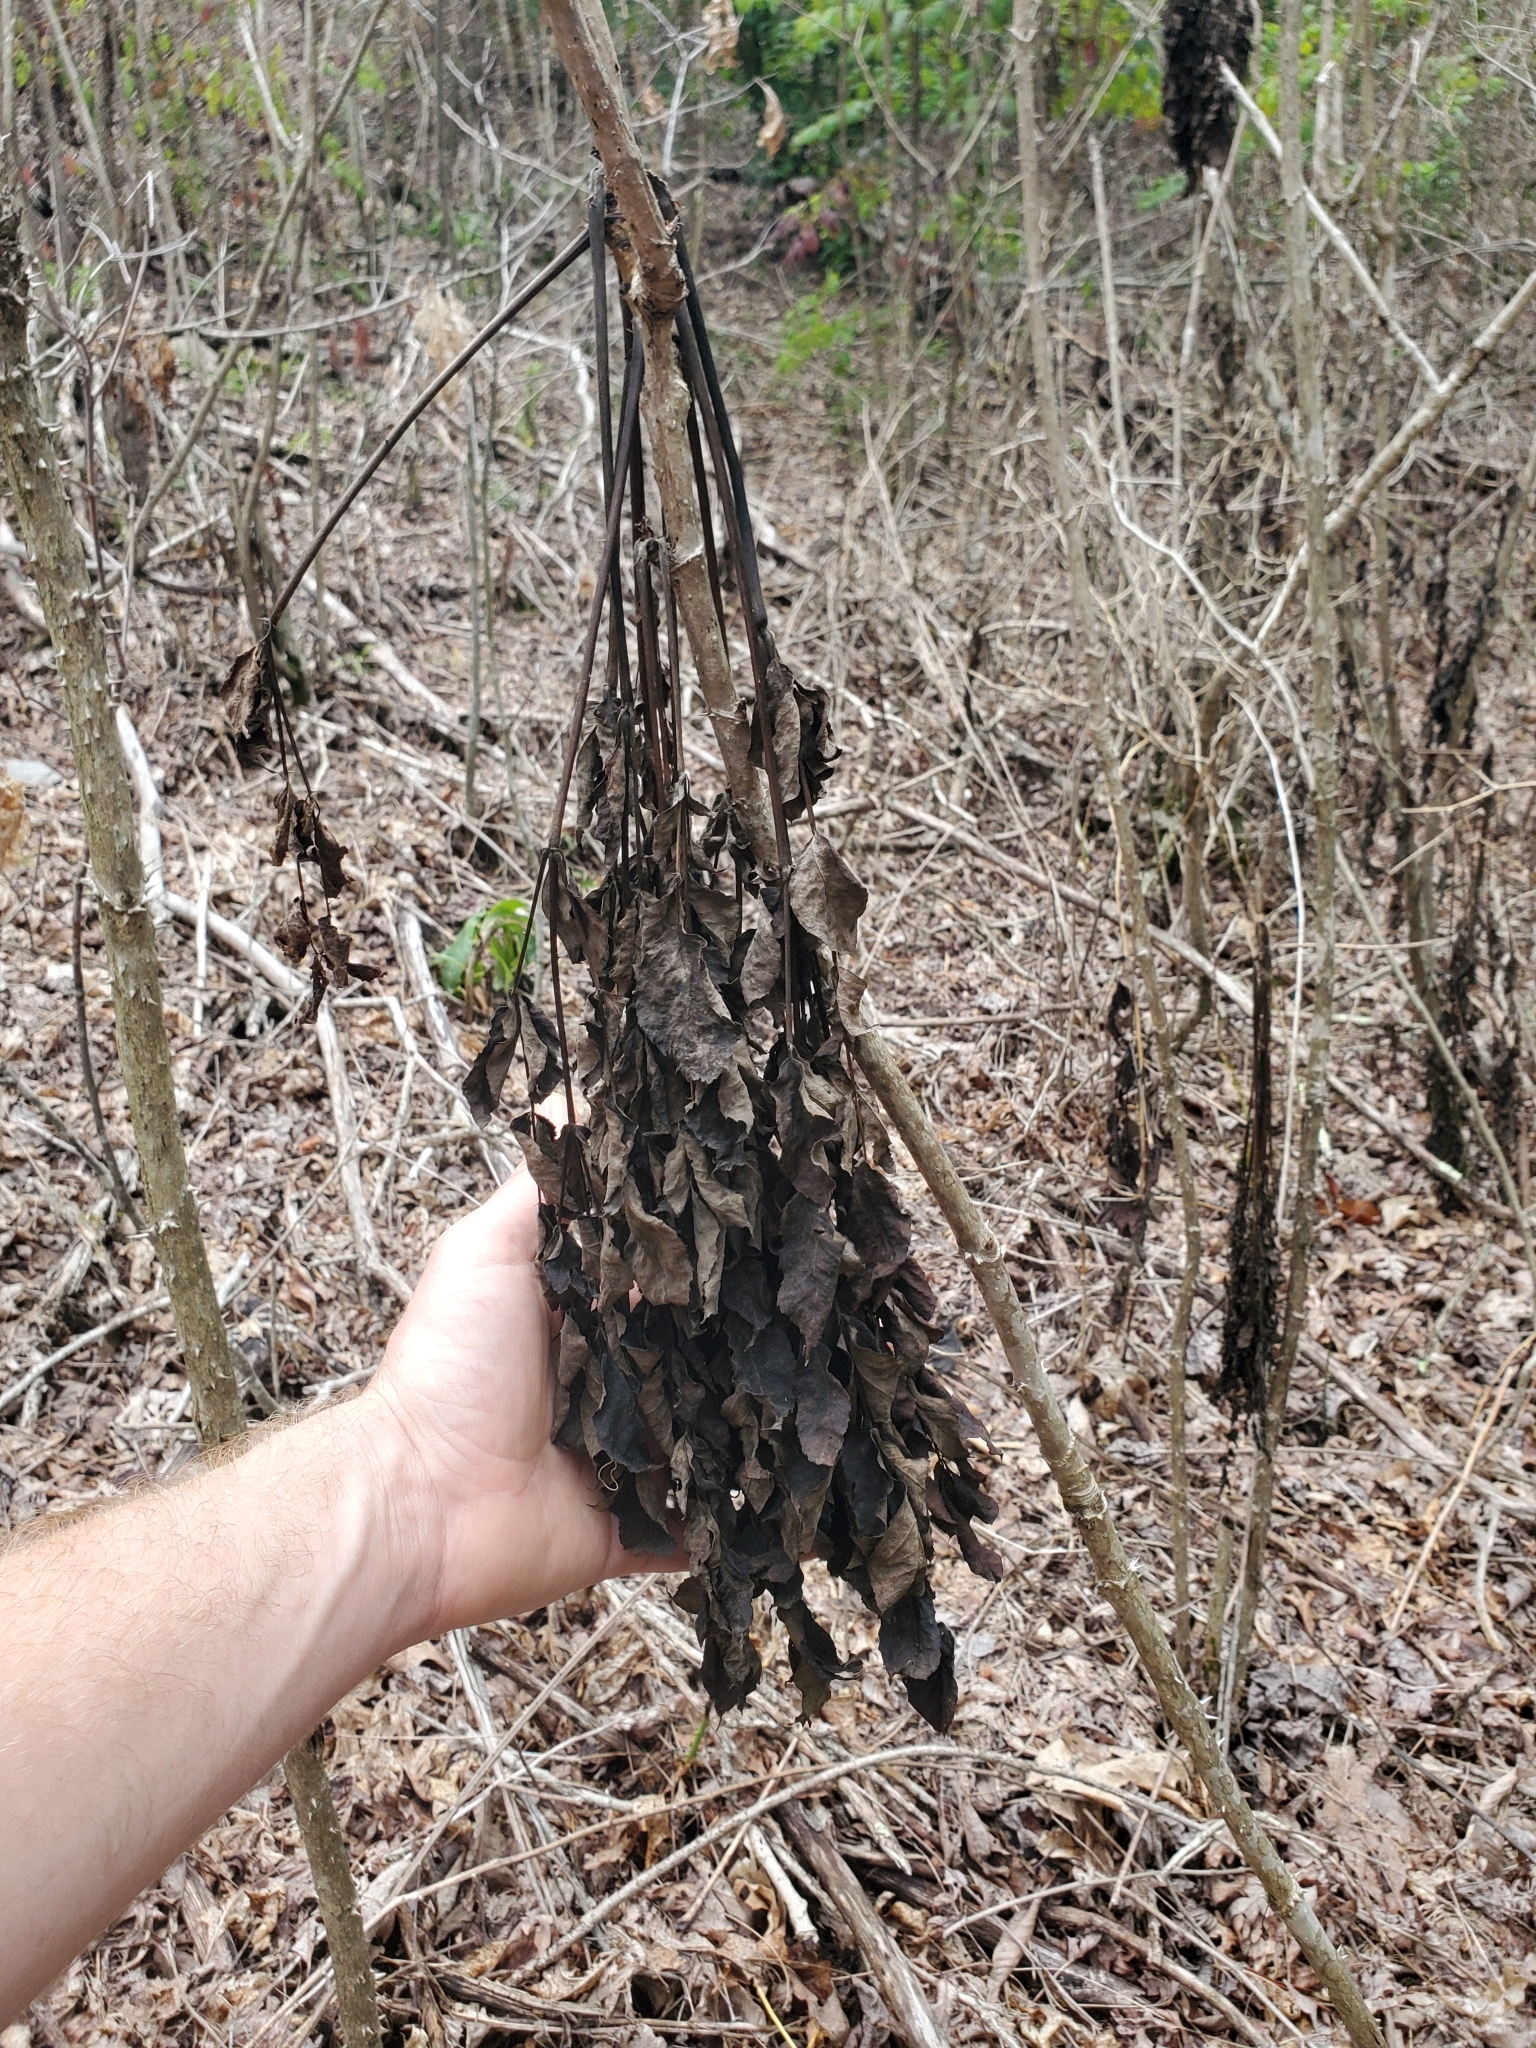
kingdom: Plantae
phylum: Tracheophyta
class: Magnoliopsida
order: Apiales
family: Araliaceae
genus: Aralia
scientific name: Aralia spinosa
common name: Hercules'-club
